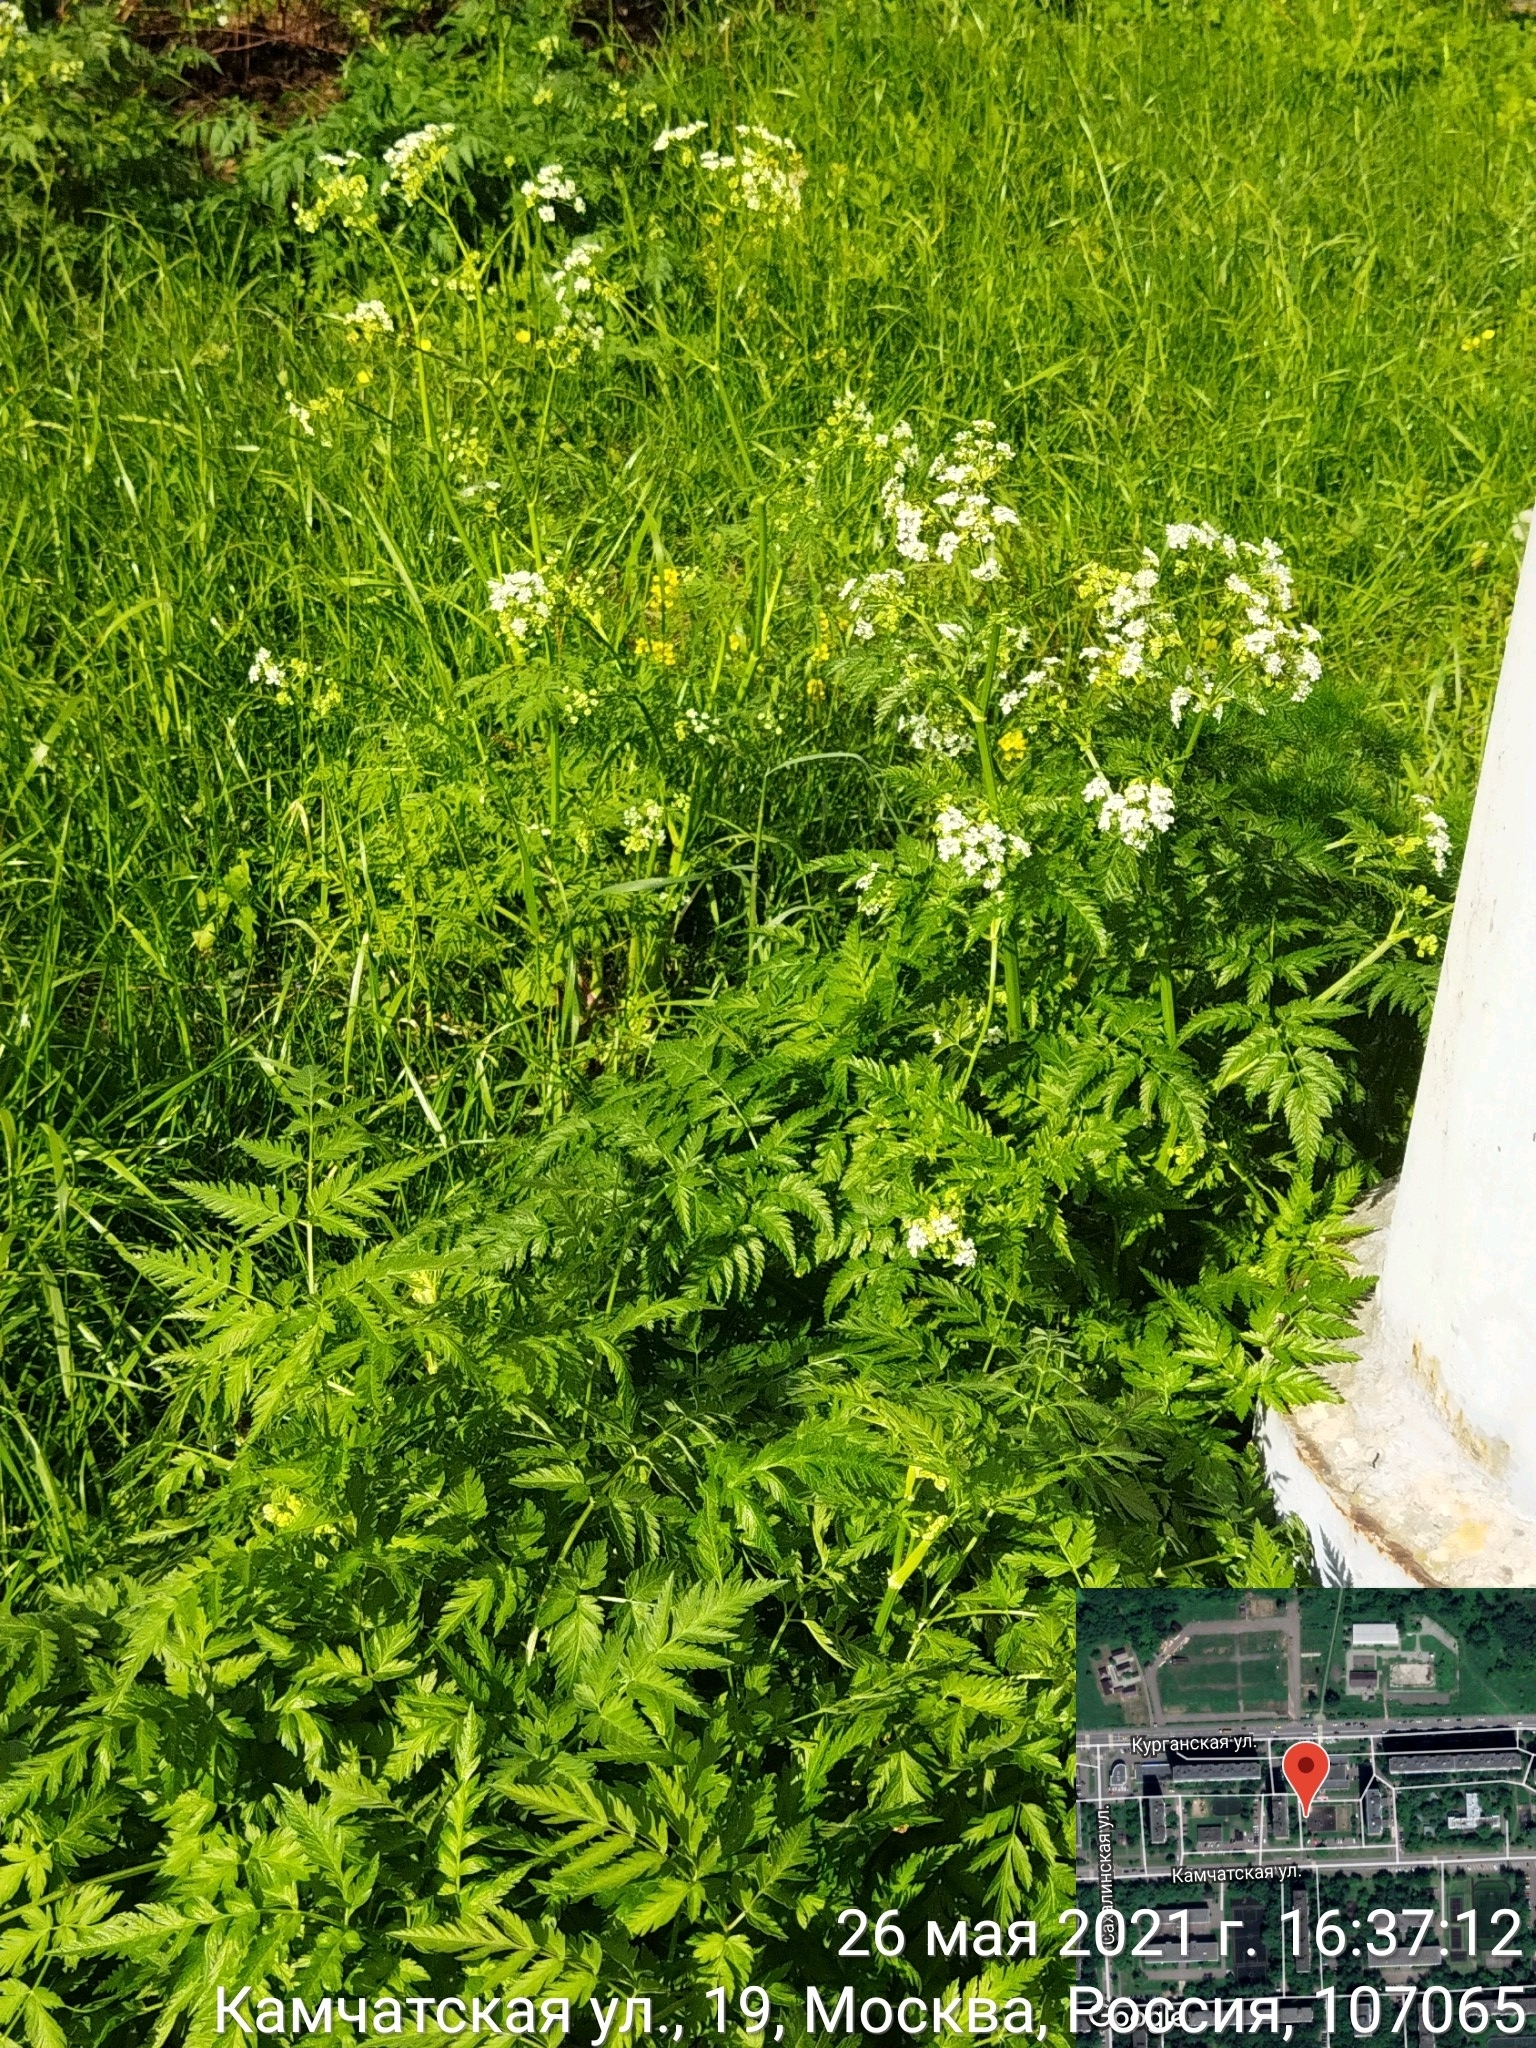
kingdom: Plantae
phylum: Tracheophyta
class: Magnoliopsida
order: Apiales
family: Apiaceae
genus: Anthriscus
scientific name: Anthriscus sylvestris
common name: Cow parsley
